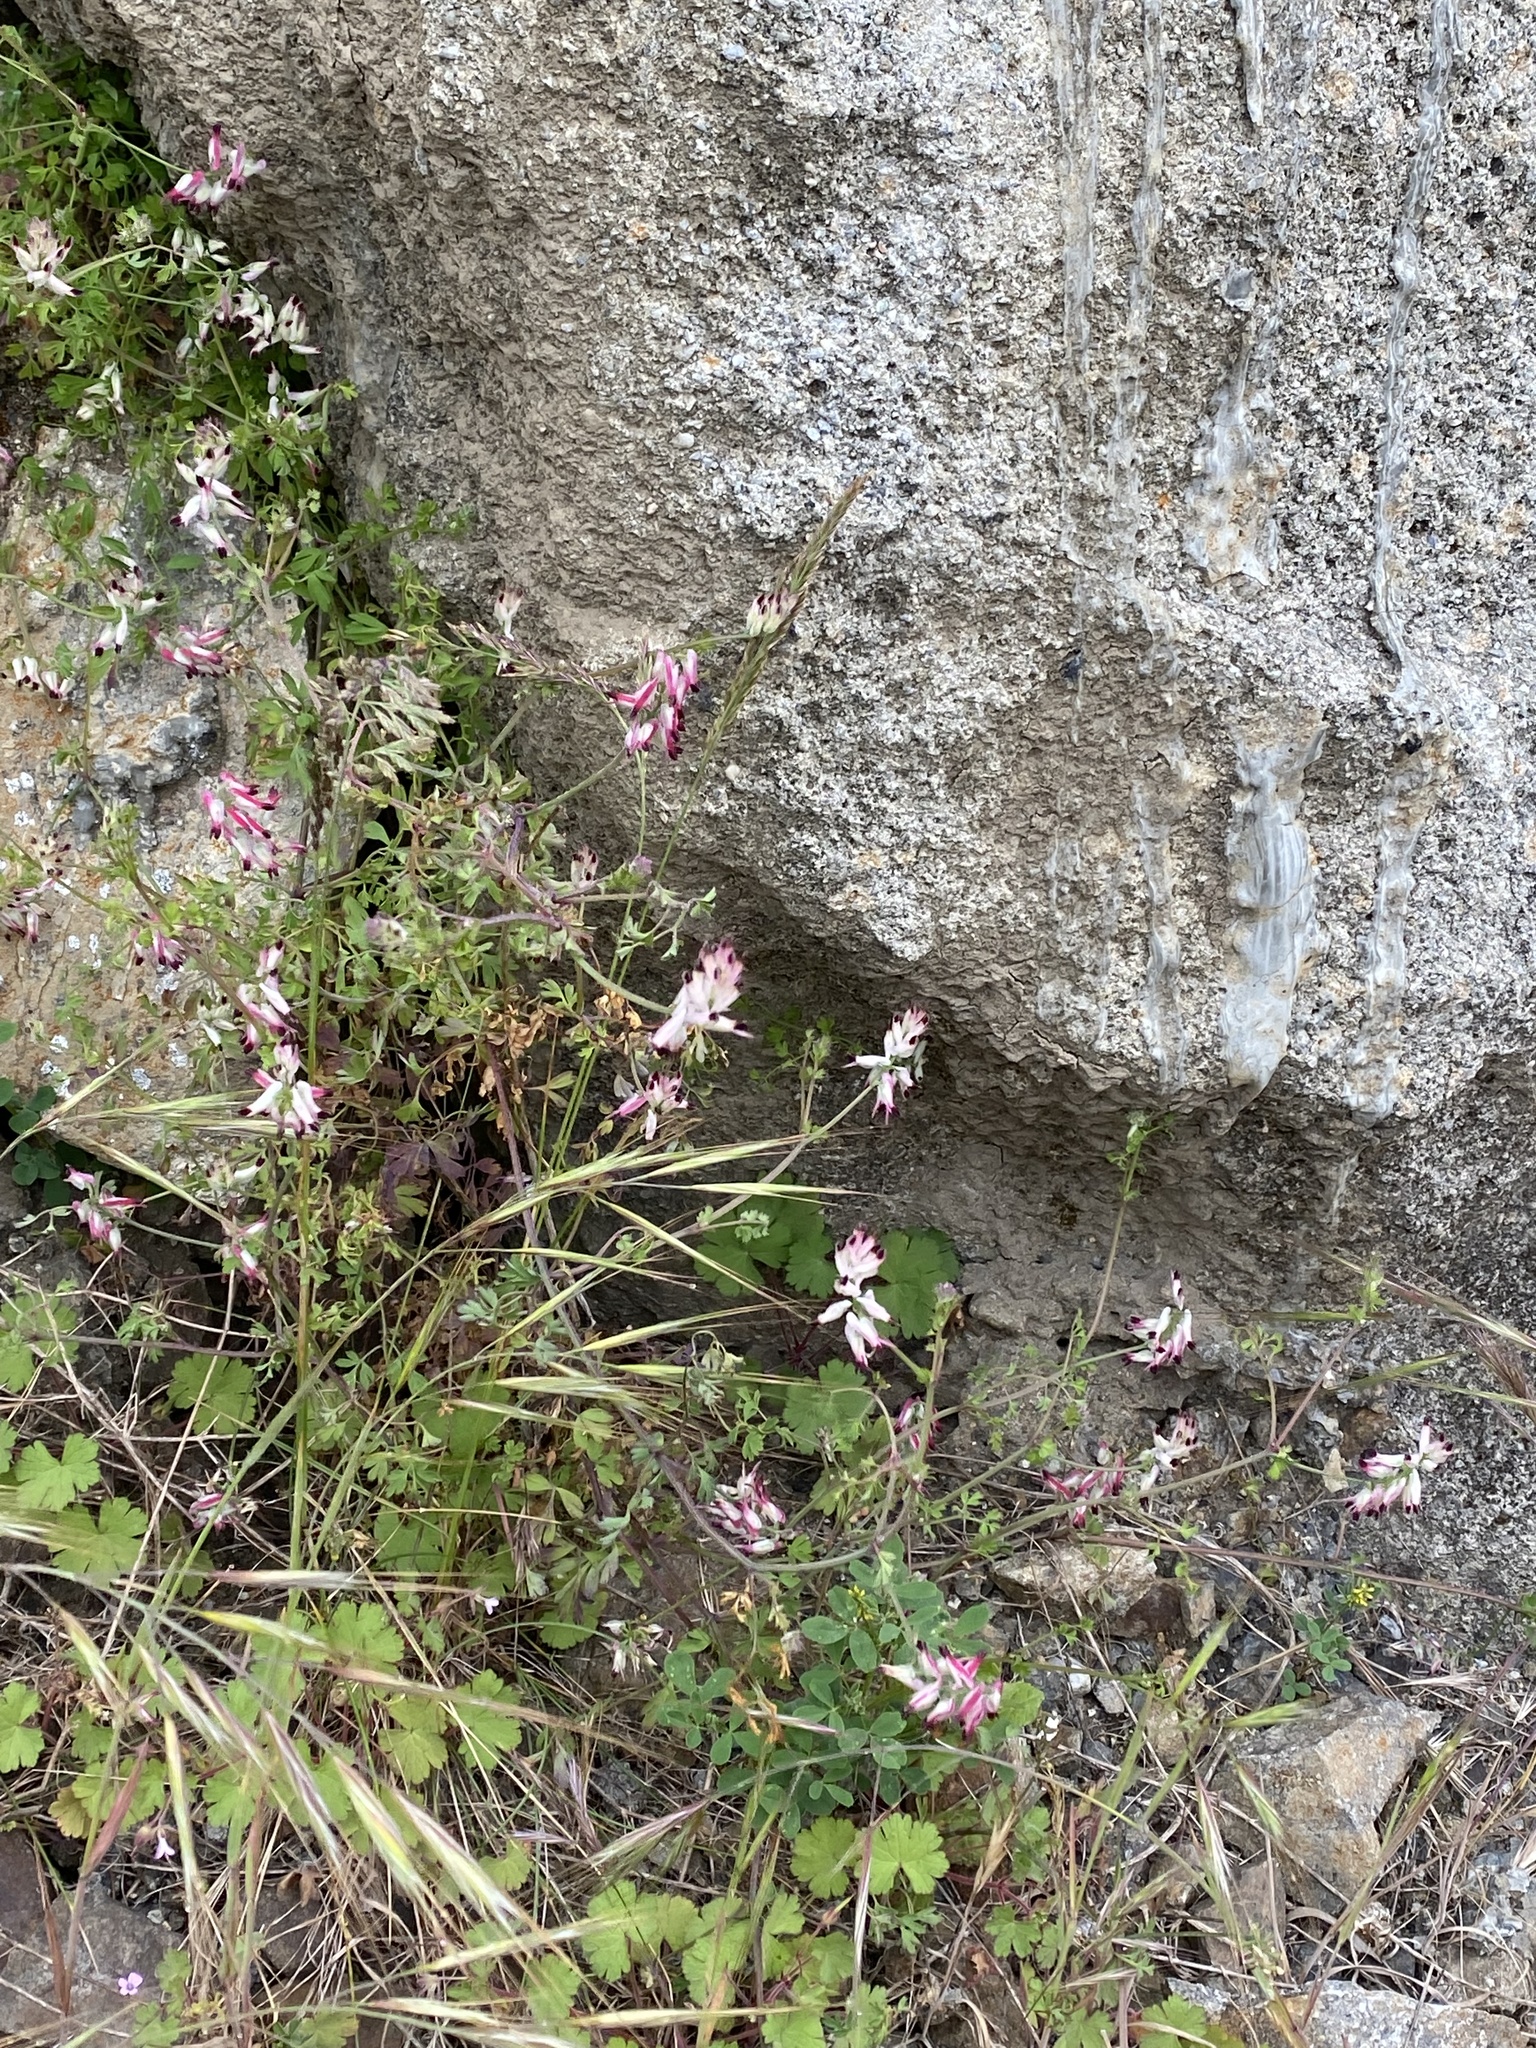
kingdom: Plantae
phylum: Tracheophyta
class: Magnoliopsida
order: Ranunculales
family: Papaveraceae
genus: Fumaria
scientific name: Fumaria capreolata
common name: White ramping-fumitory
